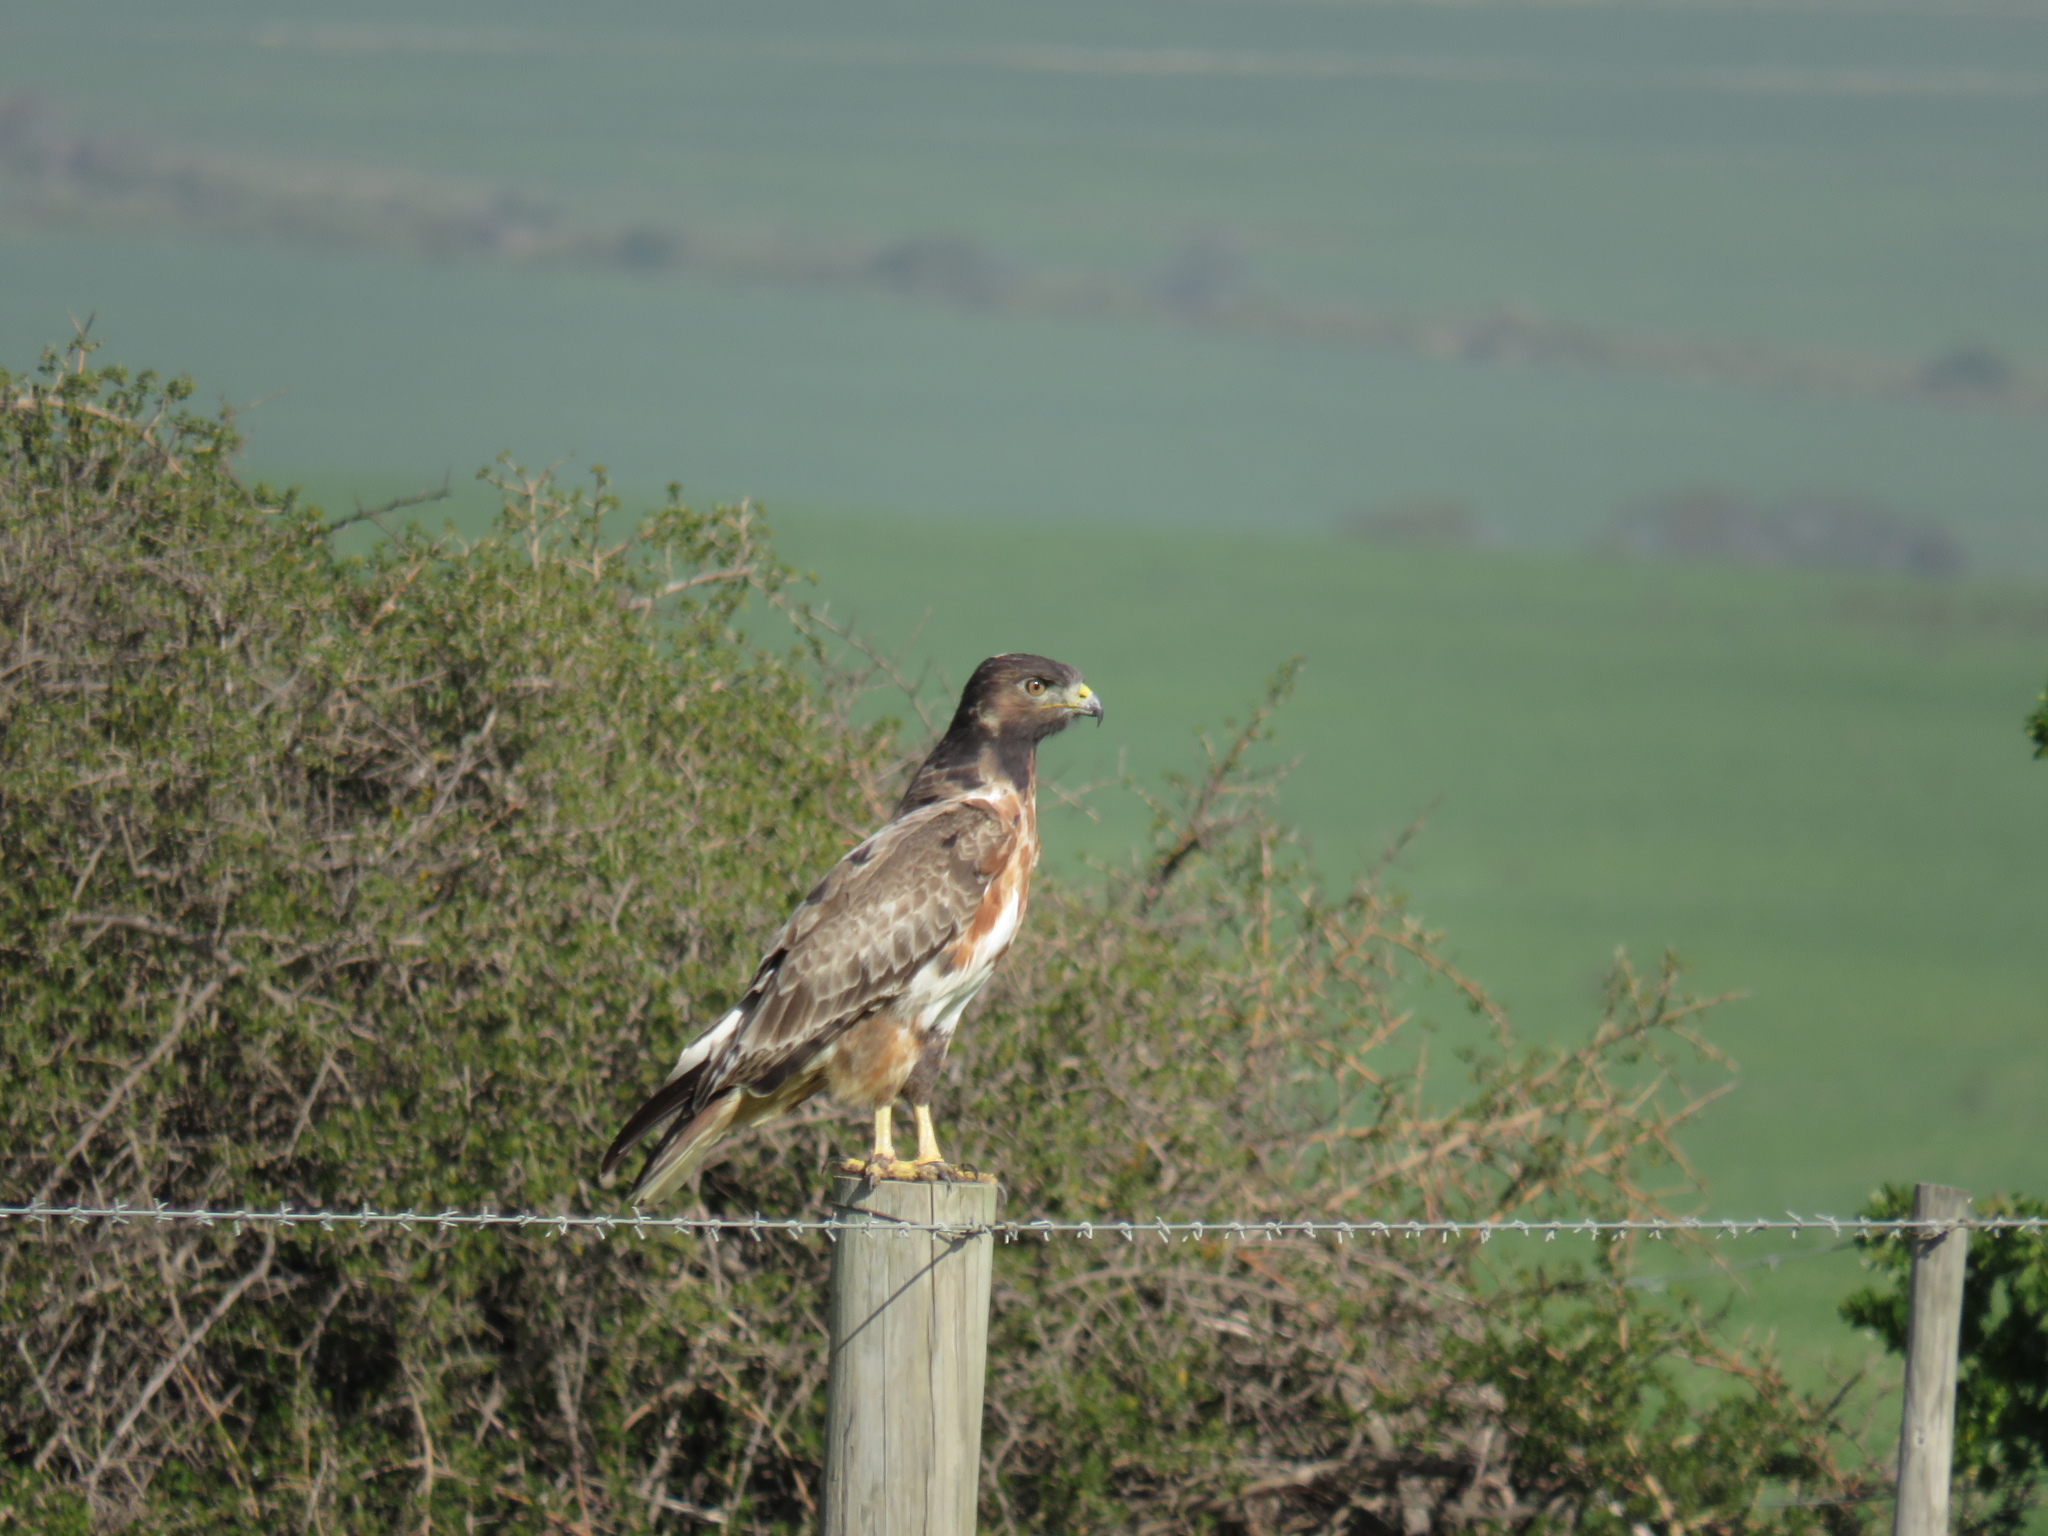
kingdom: Animalia
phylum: Chordata
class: Aves
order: Accipitriformes
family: Accipitridae
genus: Buteo
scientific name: Buteo rufofuscus
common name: Jackal buzzard
